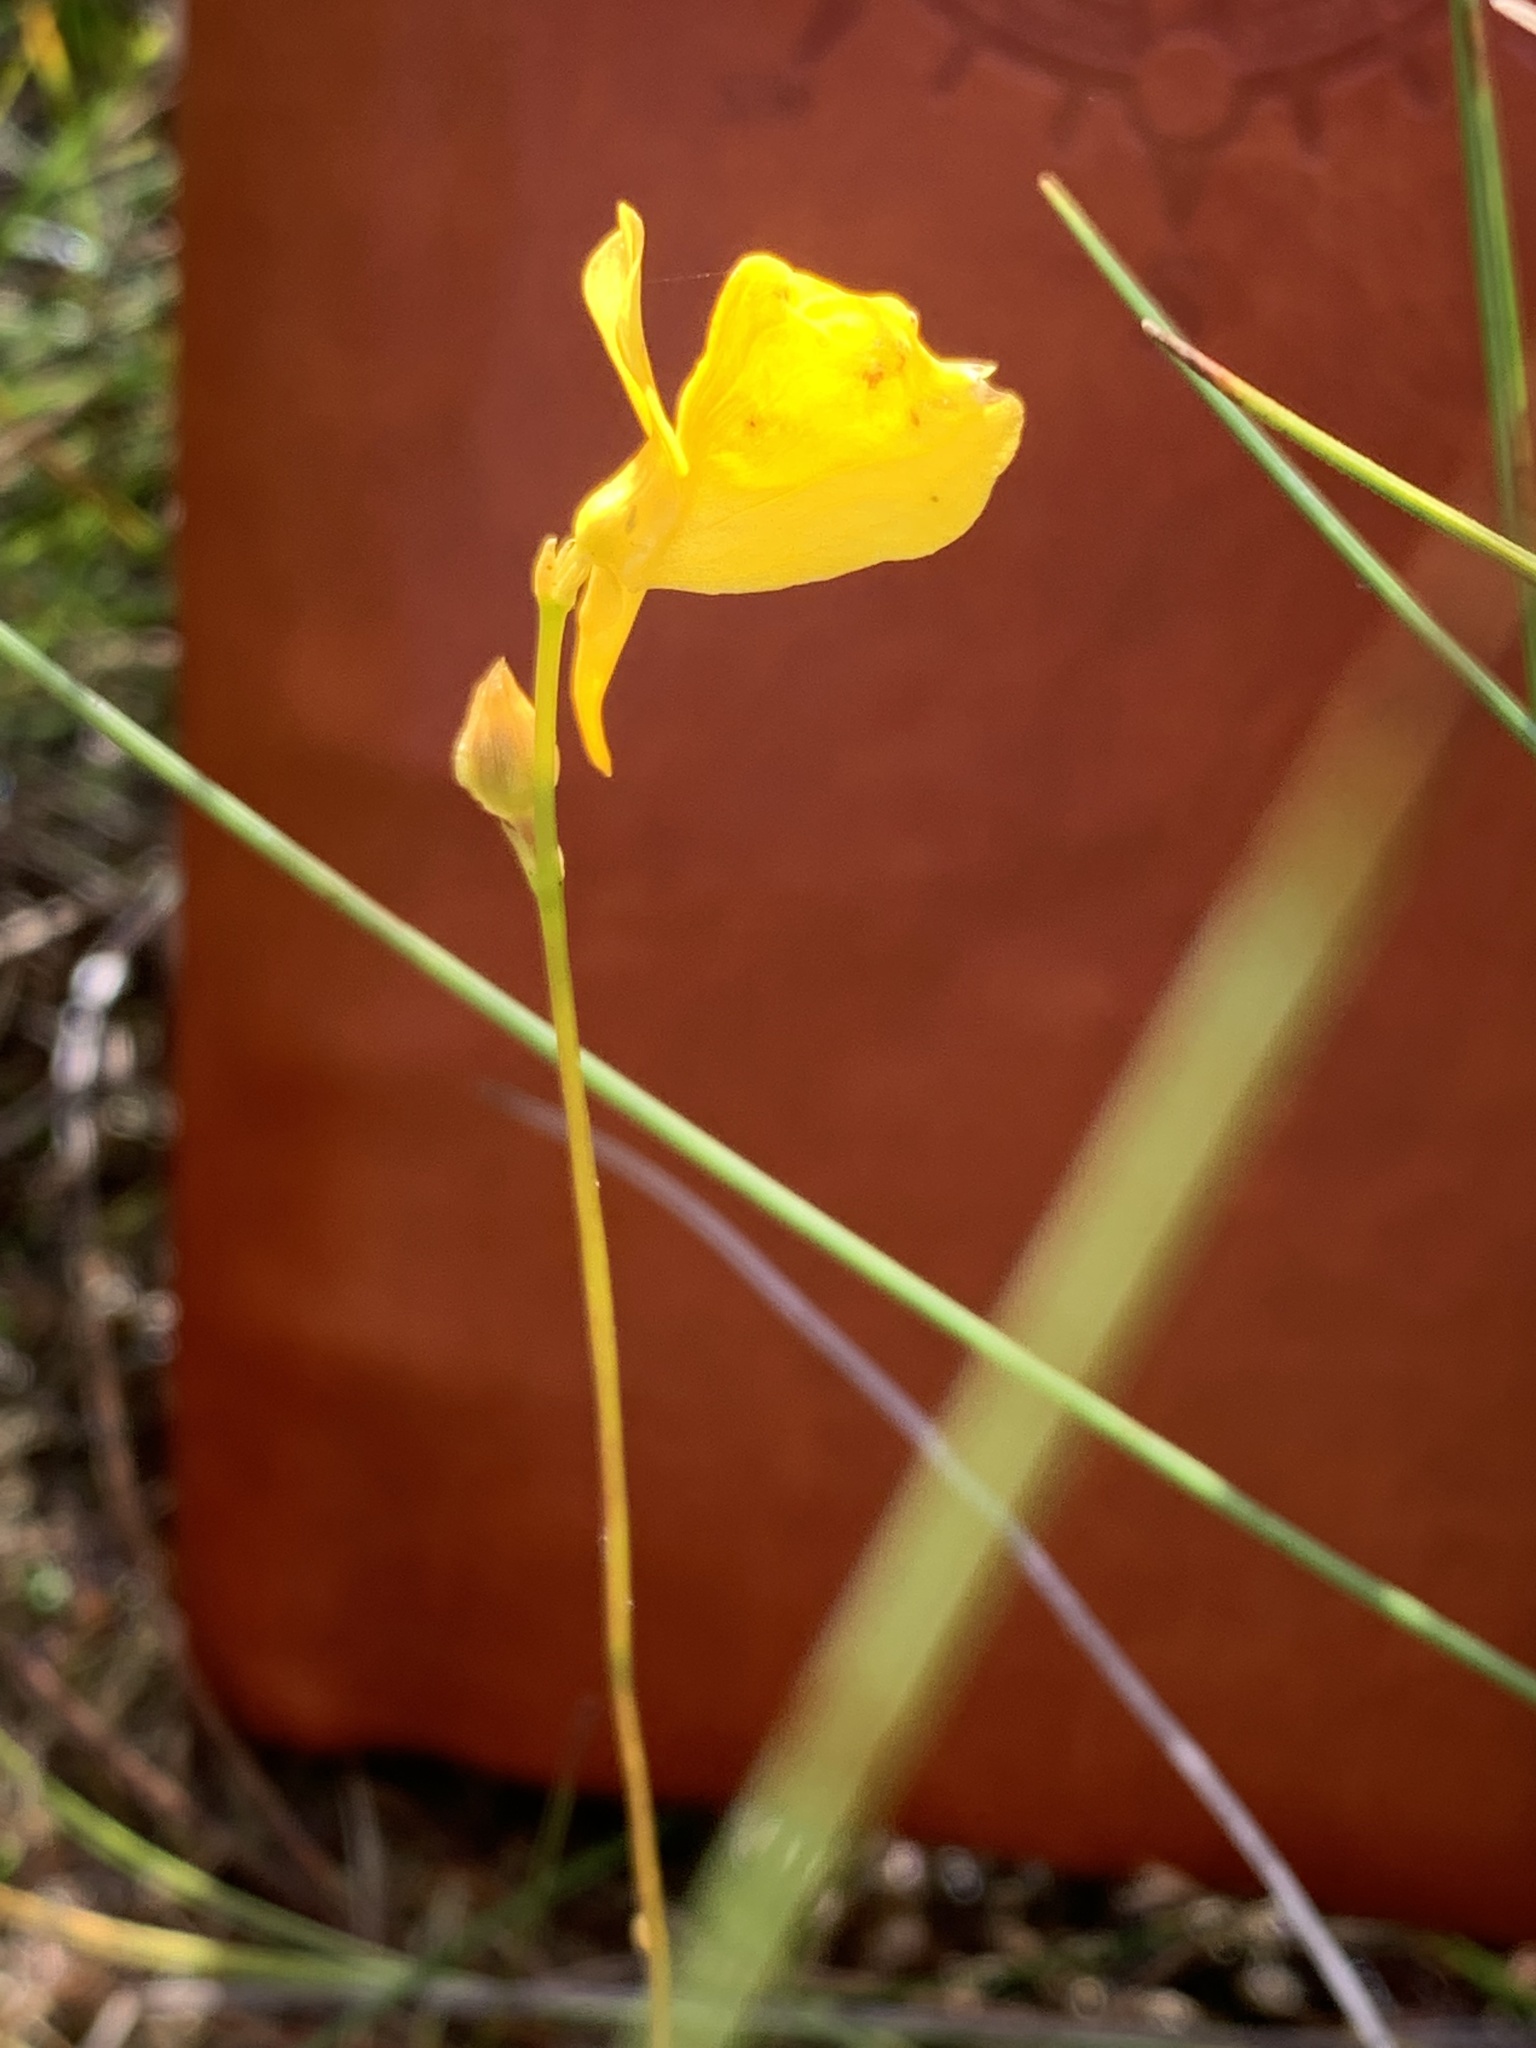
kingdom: Plantae
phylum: Tracheophyta
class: Magnoliopsida
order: Lamiales
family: Lentibulariaceae
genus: Utricularia
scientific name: Utricularia cornuta
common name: Horned bladderwort
